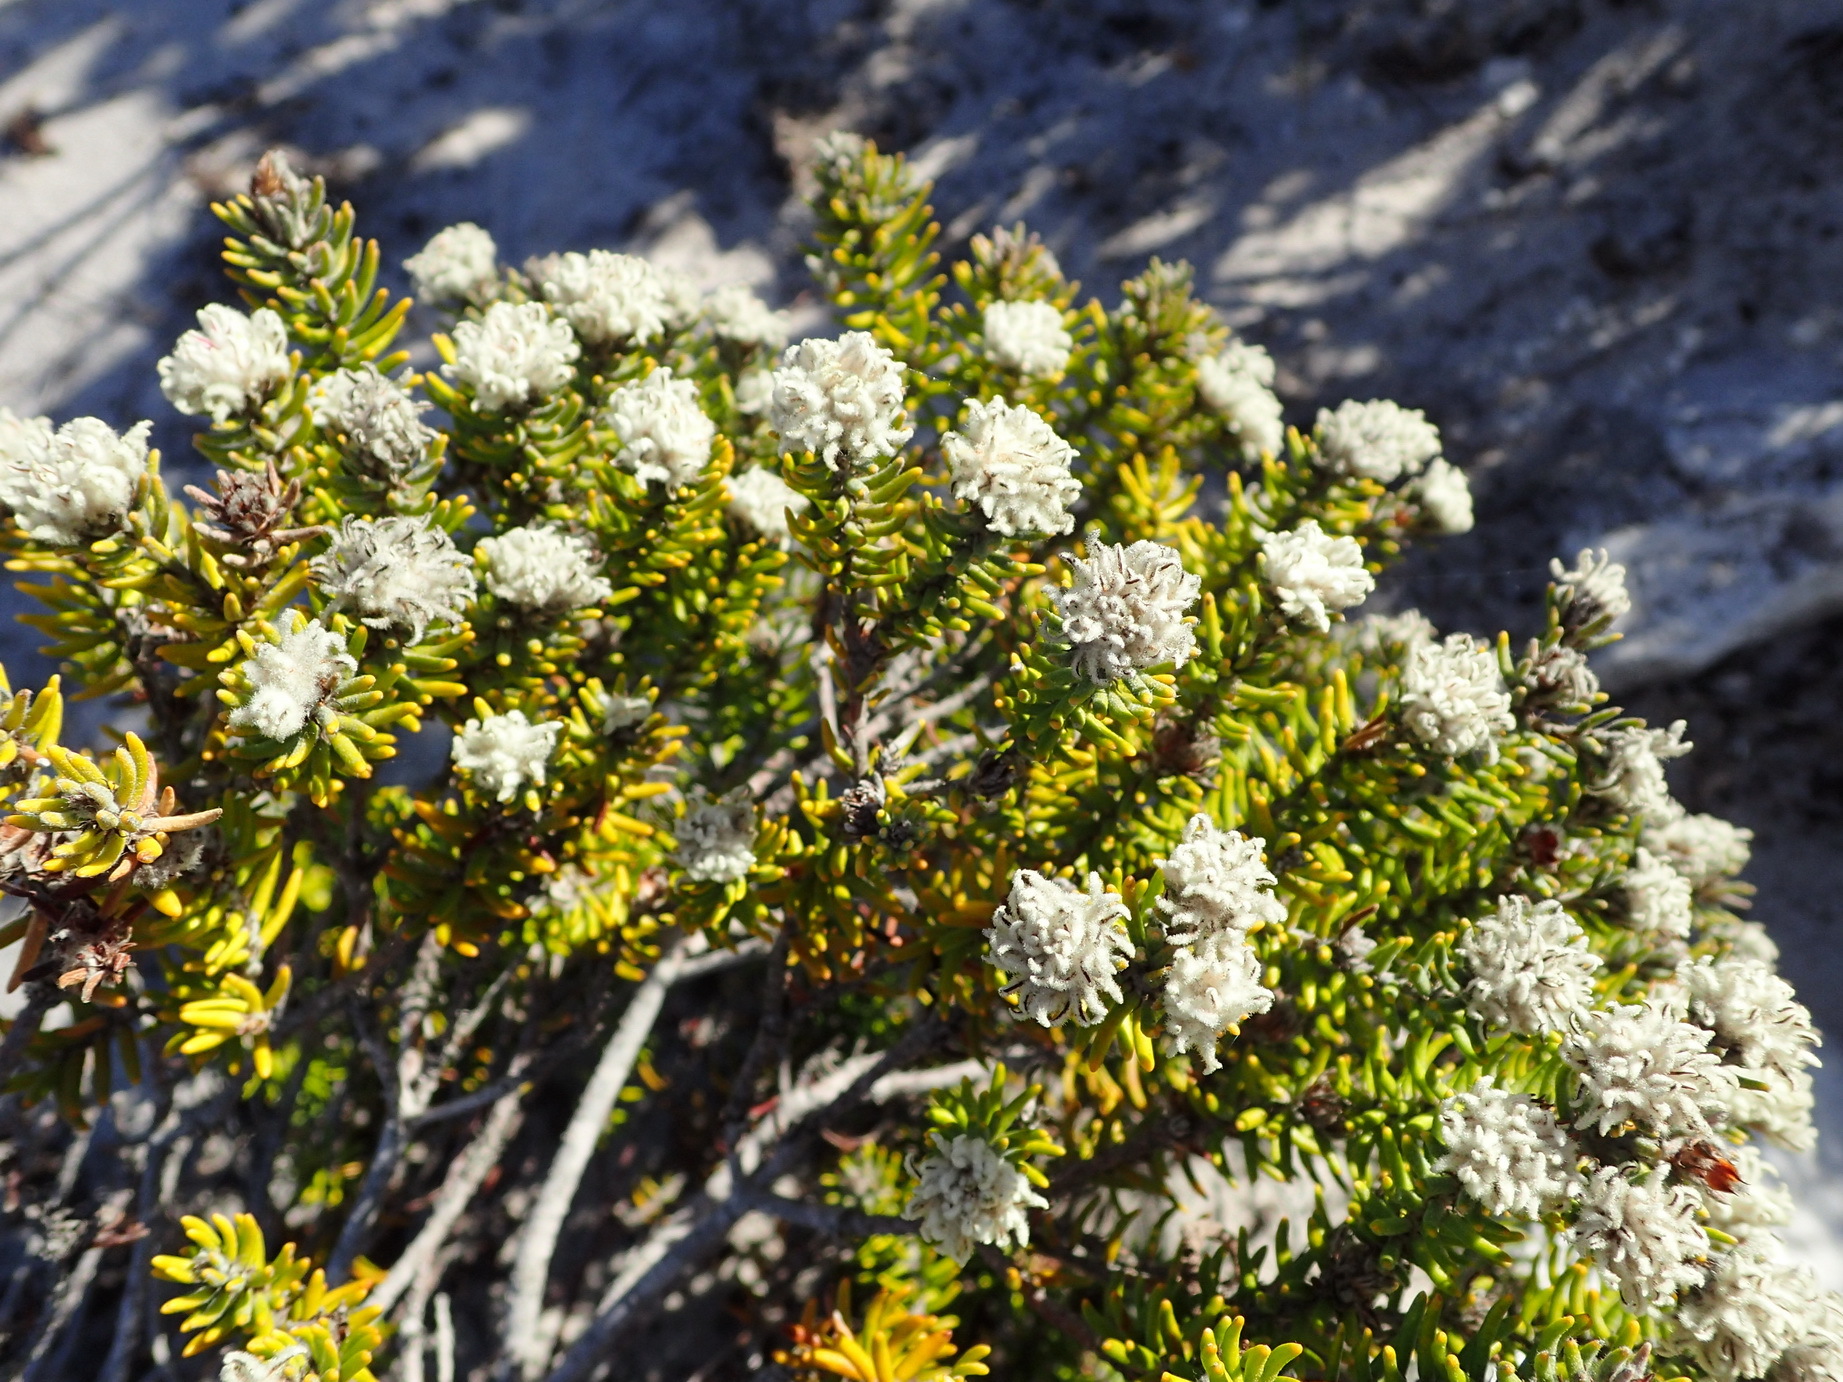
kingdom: Plantae
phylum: Tracheophyta
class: Magnoliopsida
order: Rosales
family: Rhamnaceae
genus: Trichocephalus
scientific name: Trichocephalus stipularis
